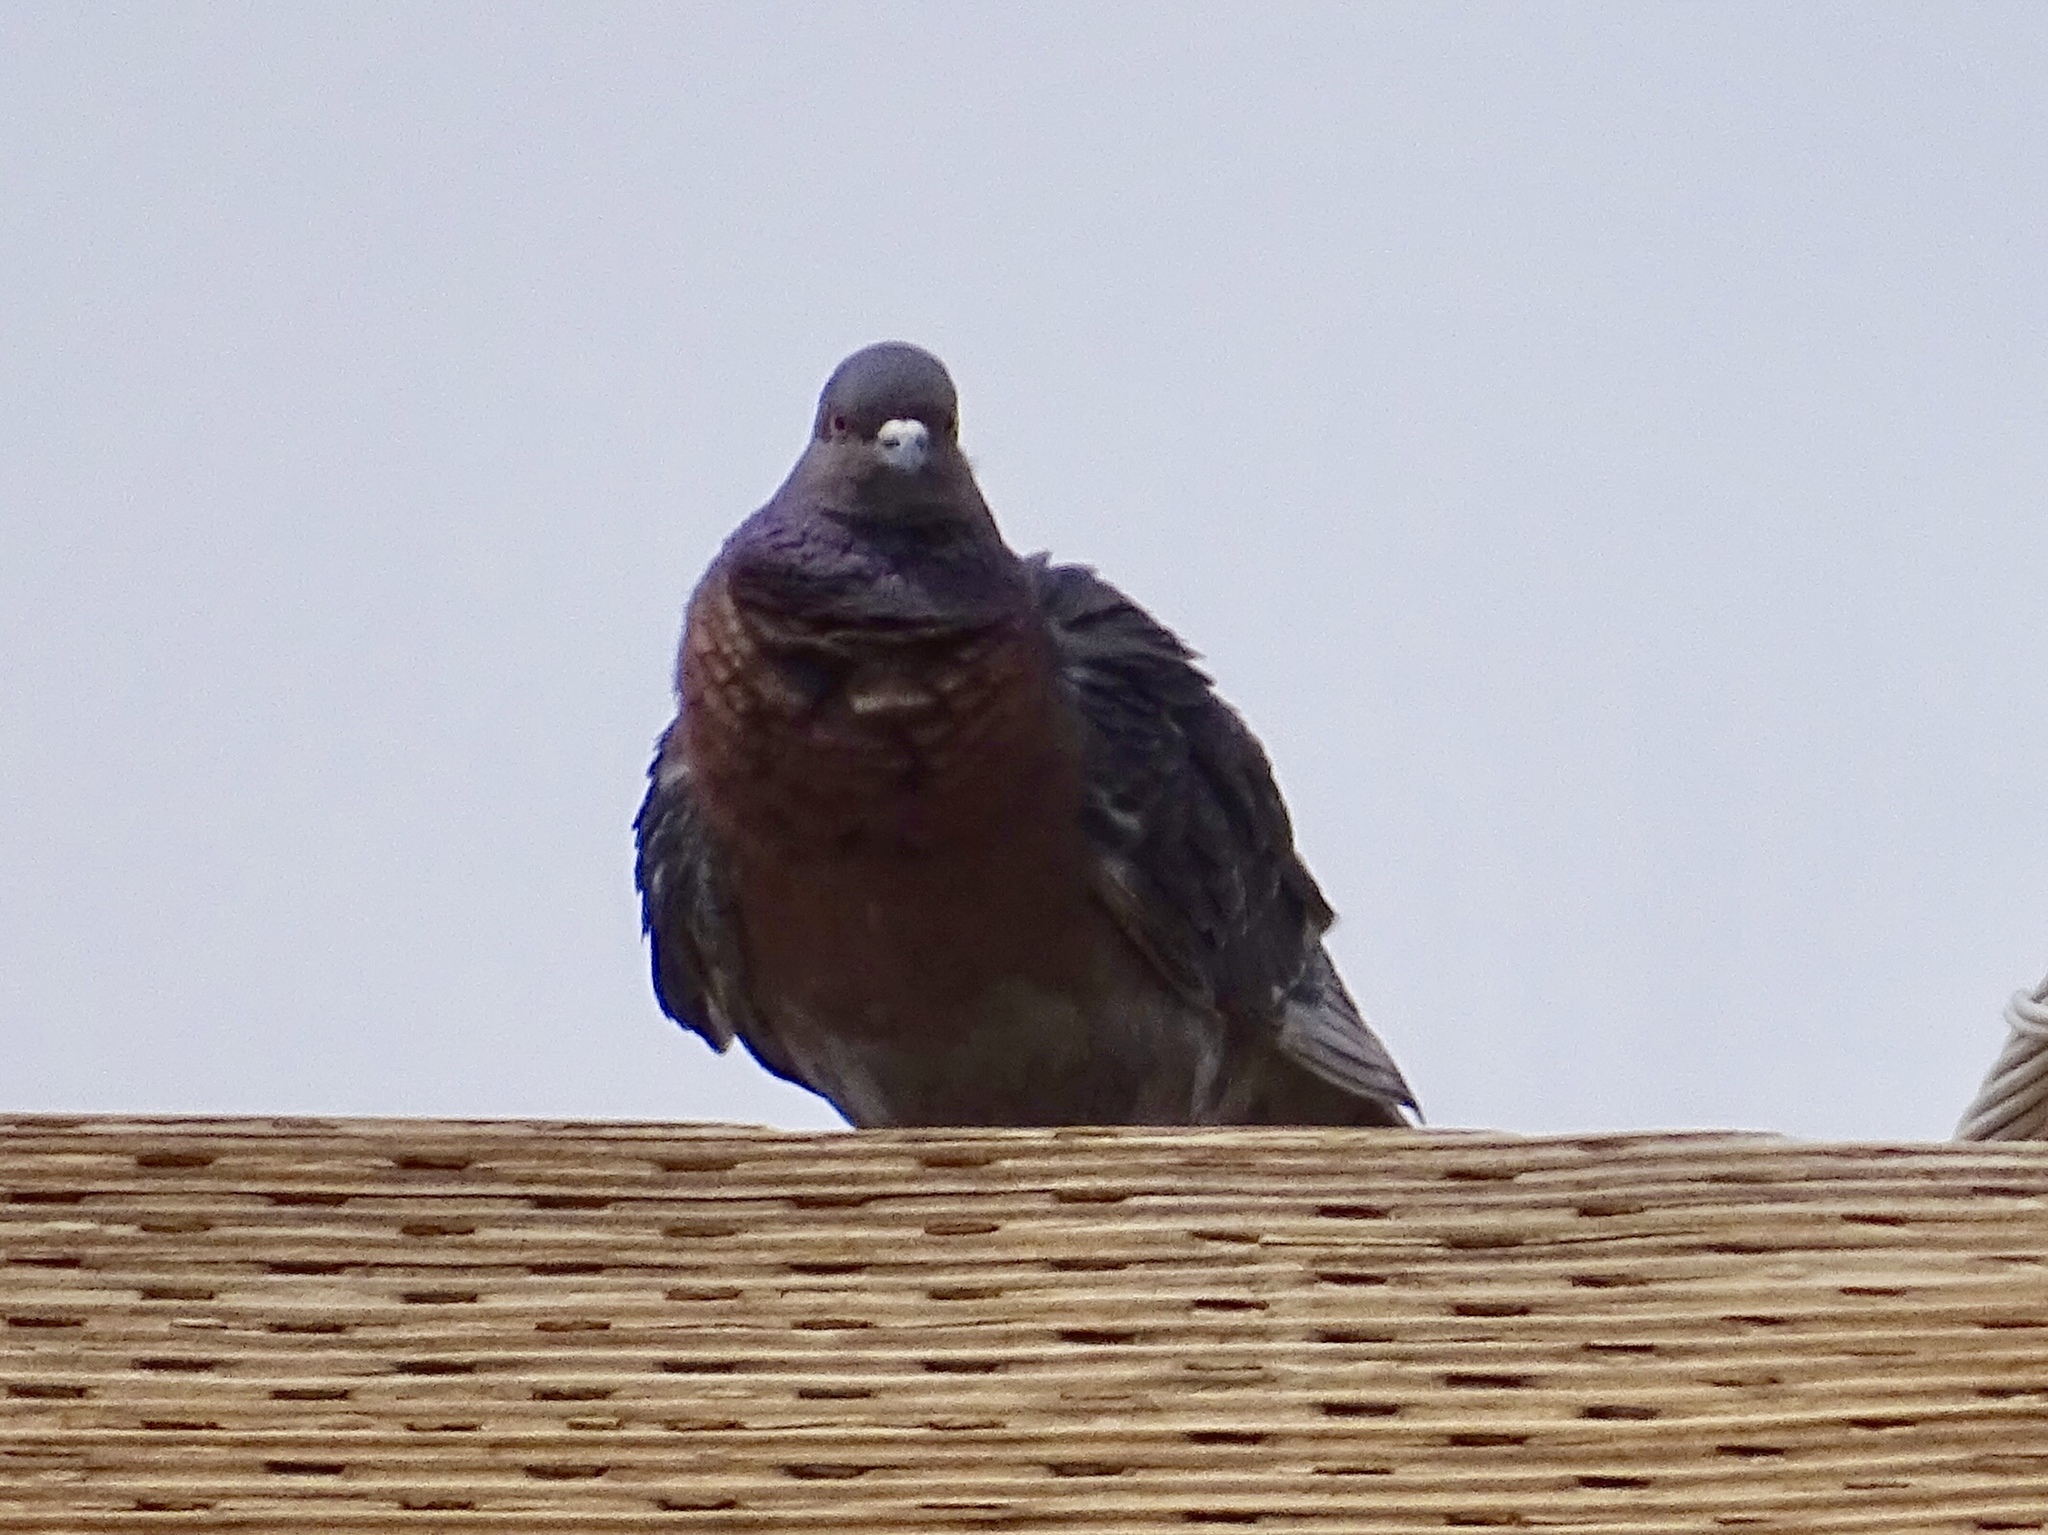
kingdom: Animalia
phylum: Chordata
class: Aves
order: Columbiformes
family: Columbidae
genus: Columba
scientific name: Columba livia
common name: Rock pigeon
